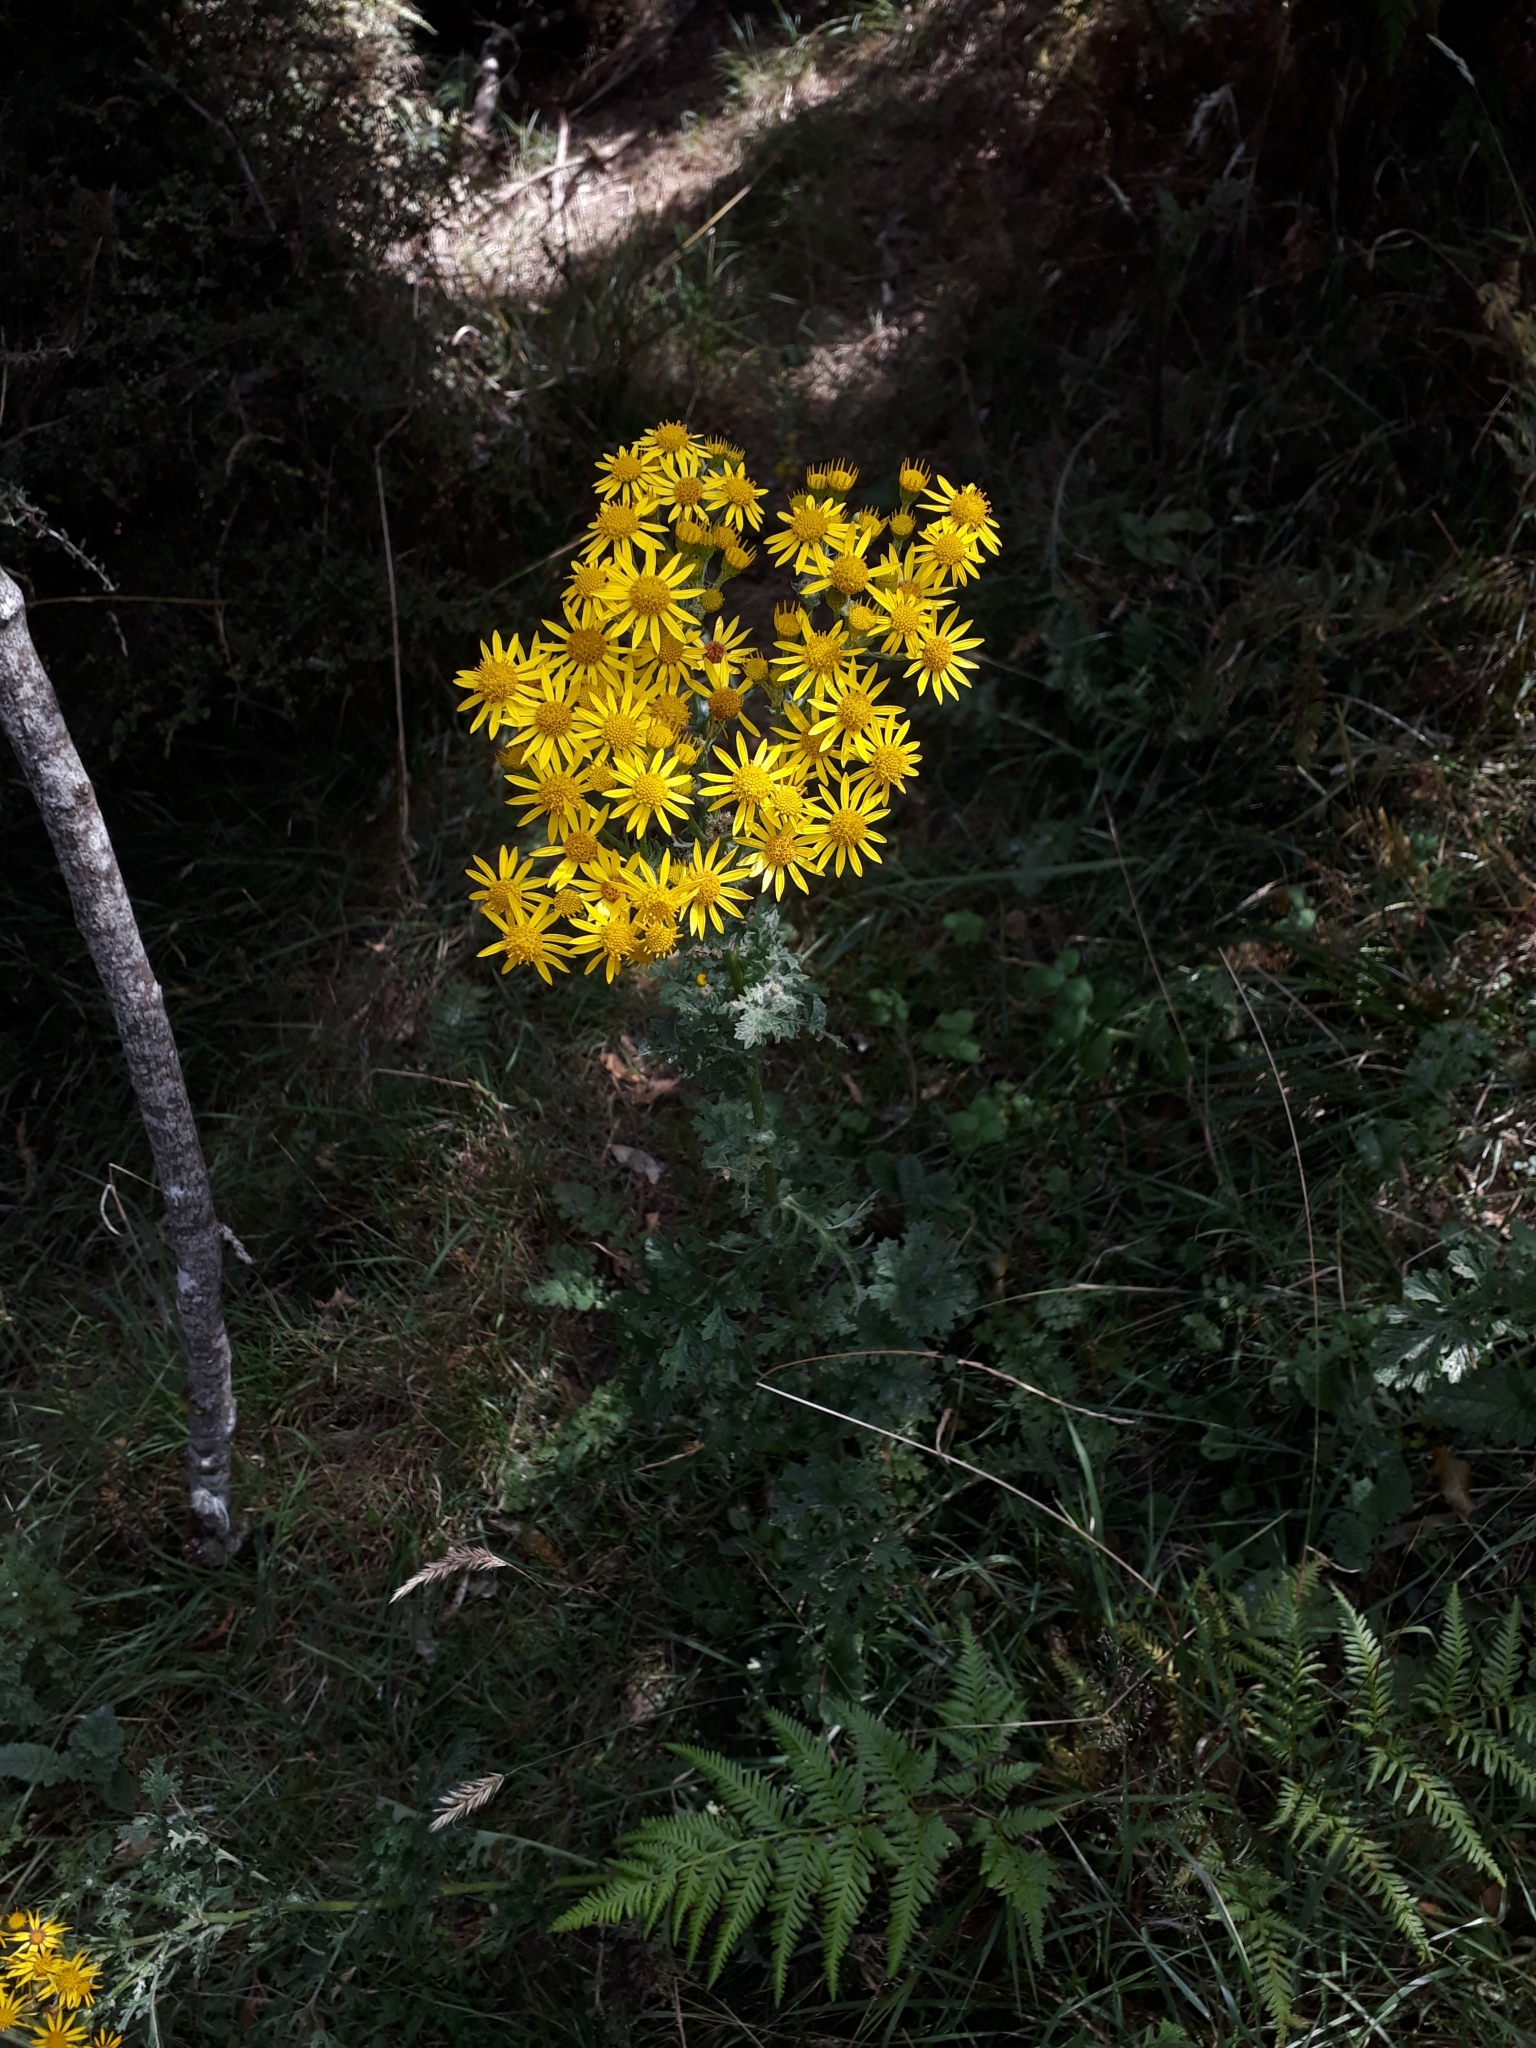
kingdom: Plantae
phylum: Tracheophyta
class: Magnoliopsida
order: Asterales
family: Asteraceae
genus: Jacobaea
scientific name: Jacobaea vulgaris
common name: Stinking willie
